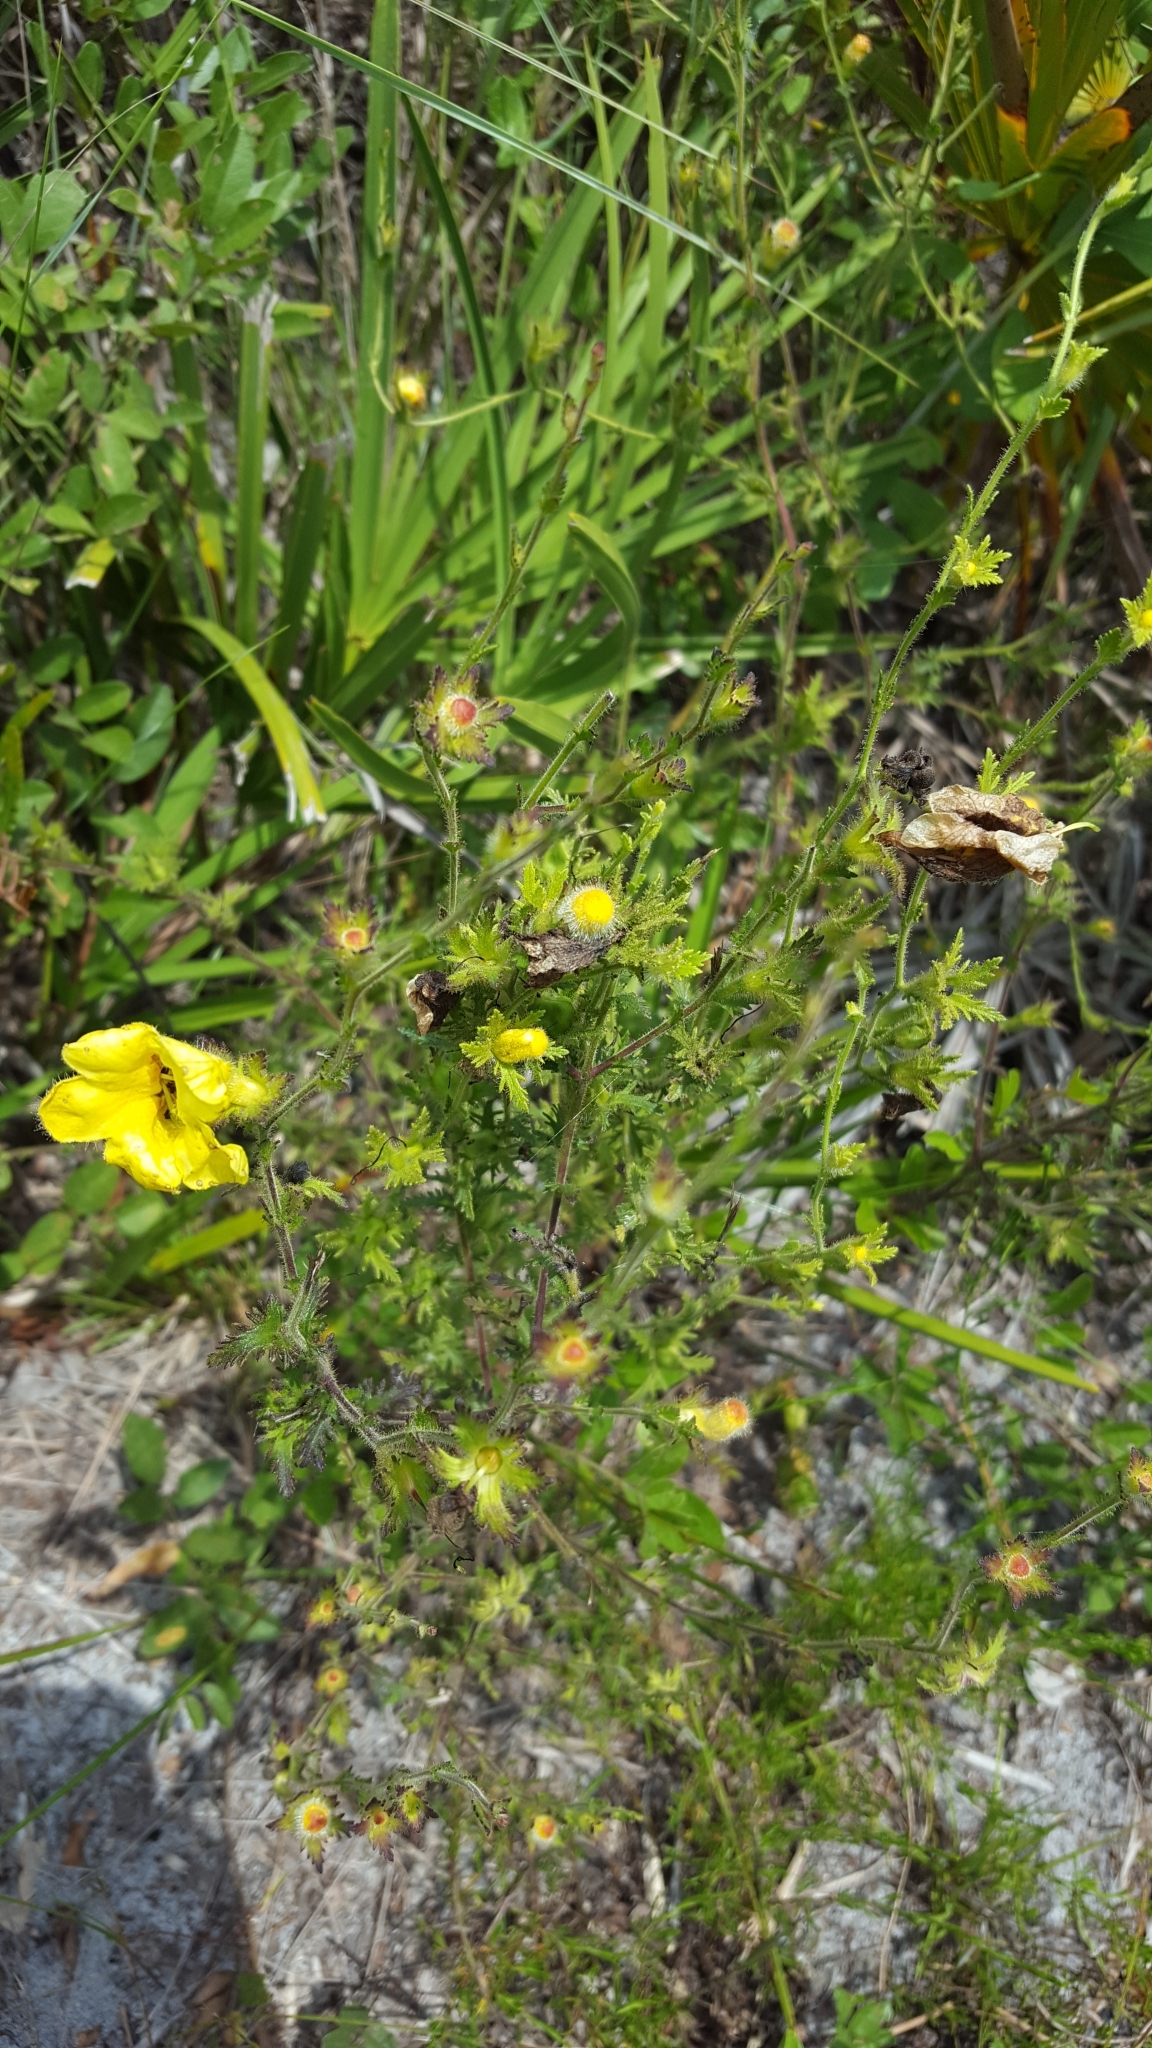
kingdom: Plantae
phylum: Tracheophyta
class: Magnoliopsida
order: Lamiales
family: Orobanchaceae
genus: Aureolaria
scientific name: Aureolaria pectinata
